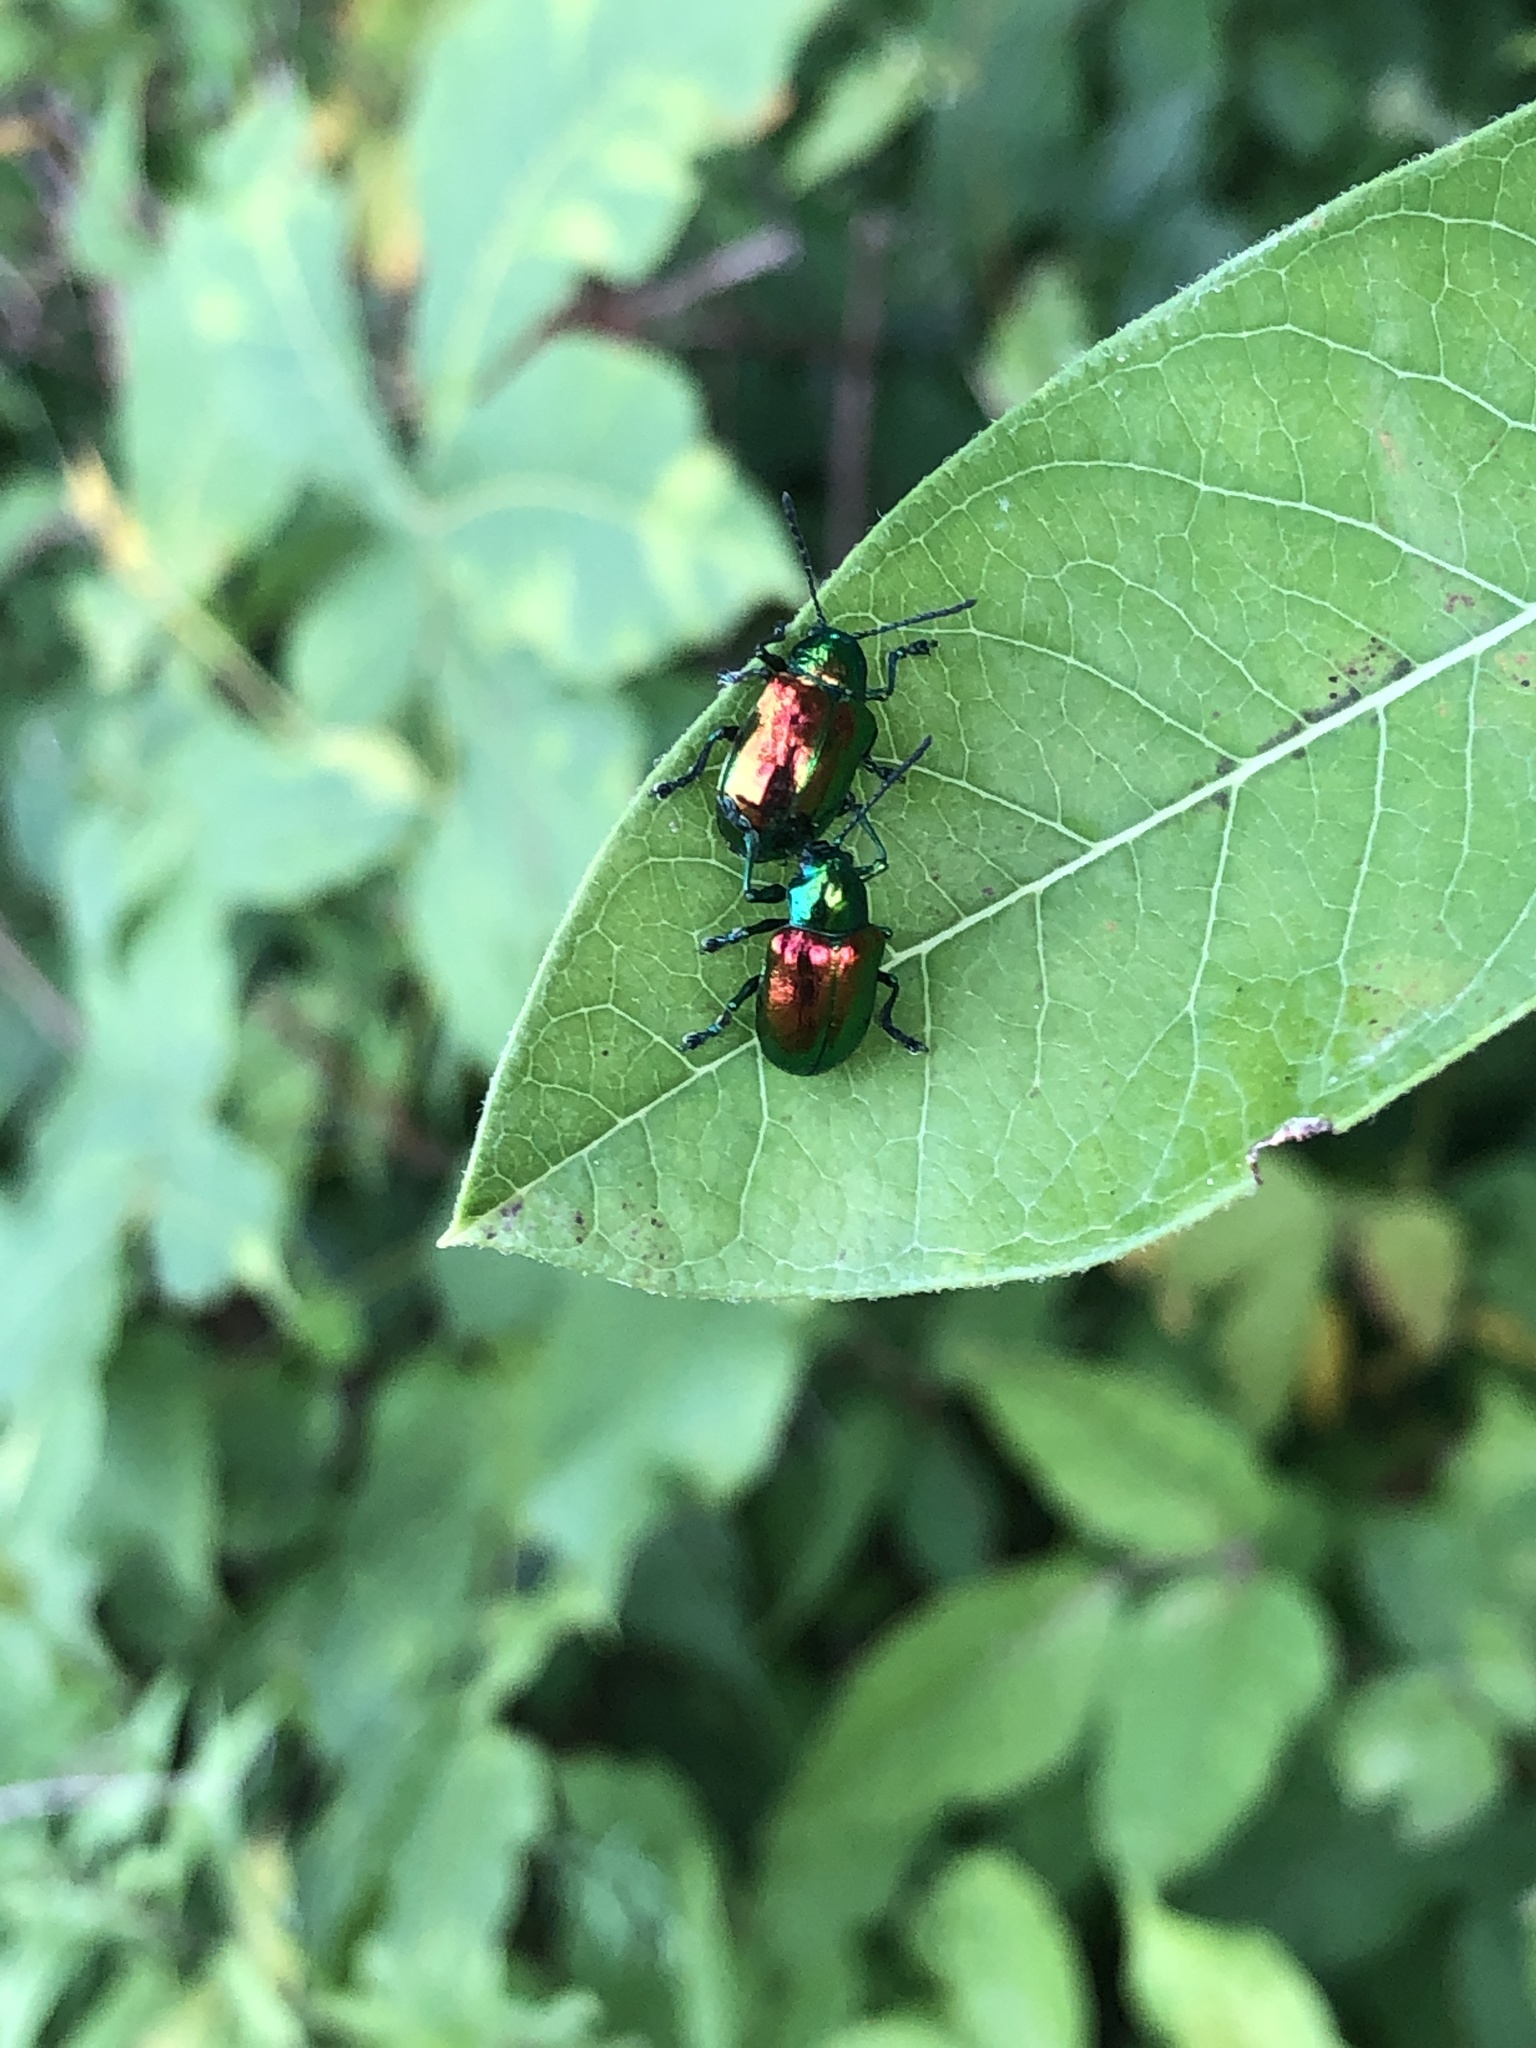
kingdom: Animalia
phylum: Arthropoda
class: Insecta
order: Coleoptera
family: Chrysomelidae
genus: Chrysochus
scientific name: Chrysochus auratus
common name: Dogbane leaf beetle
